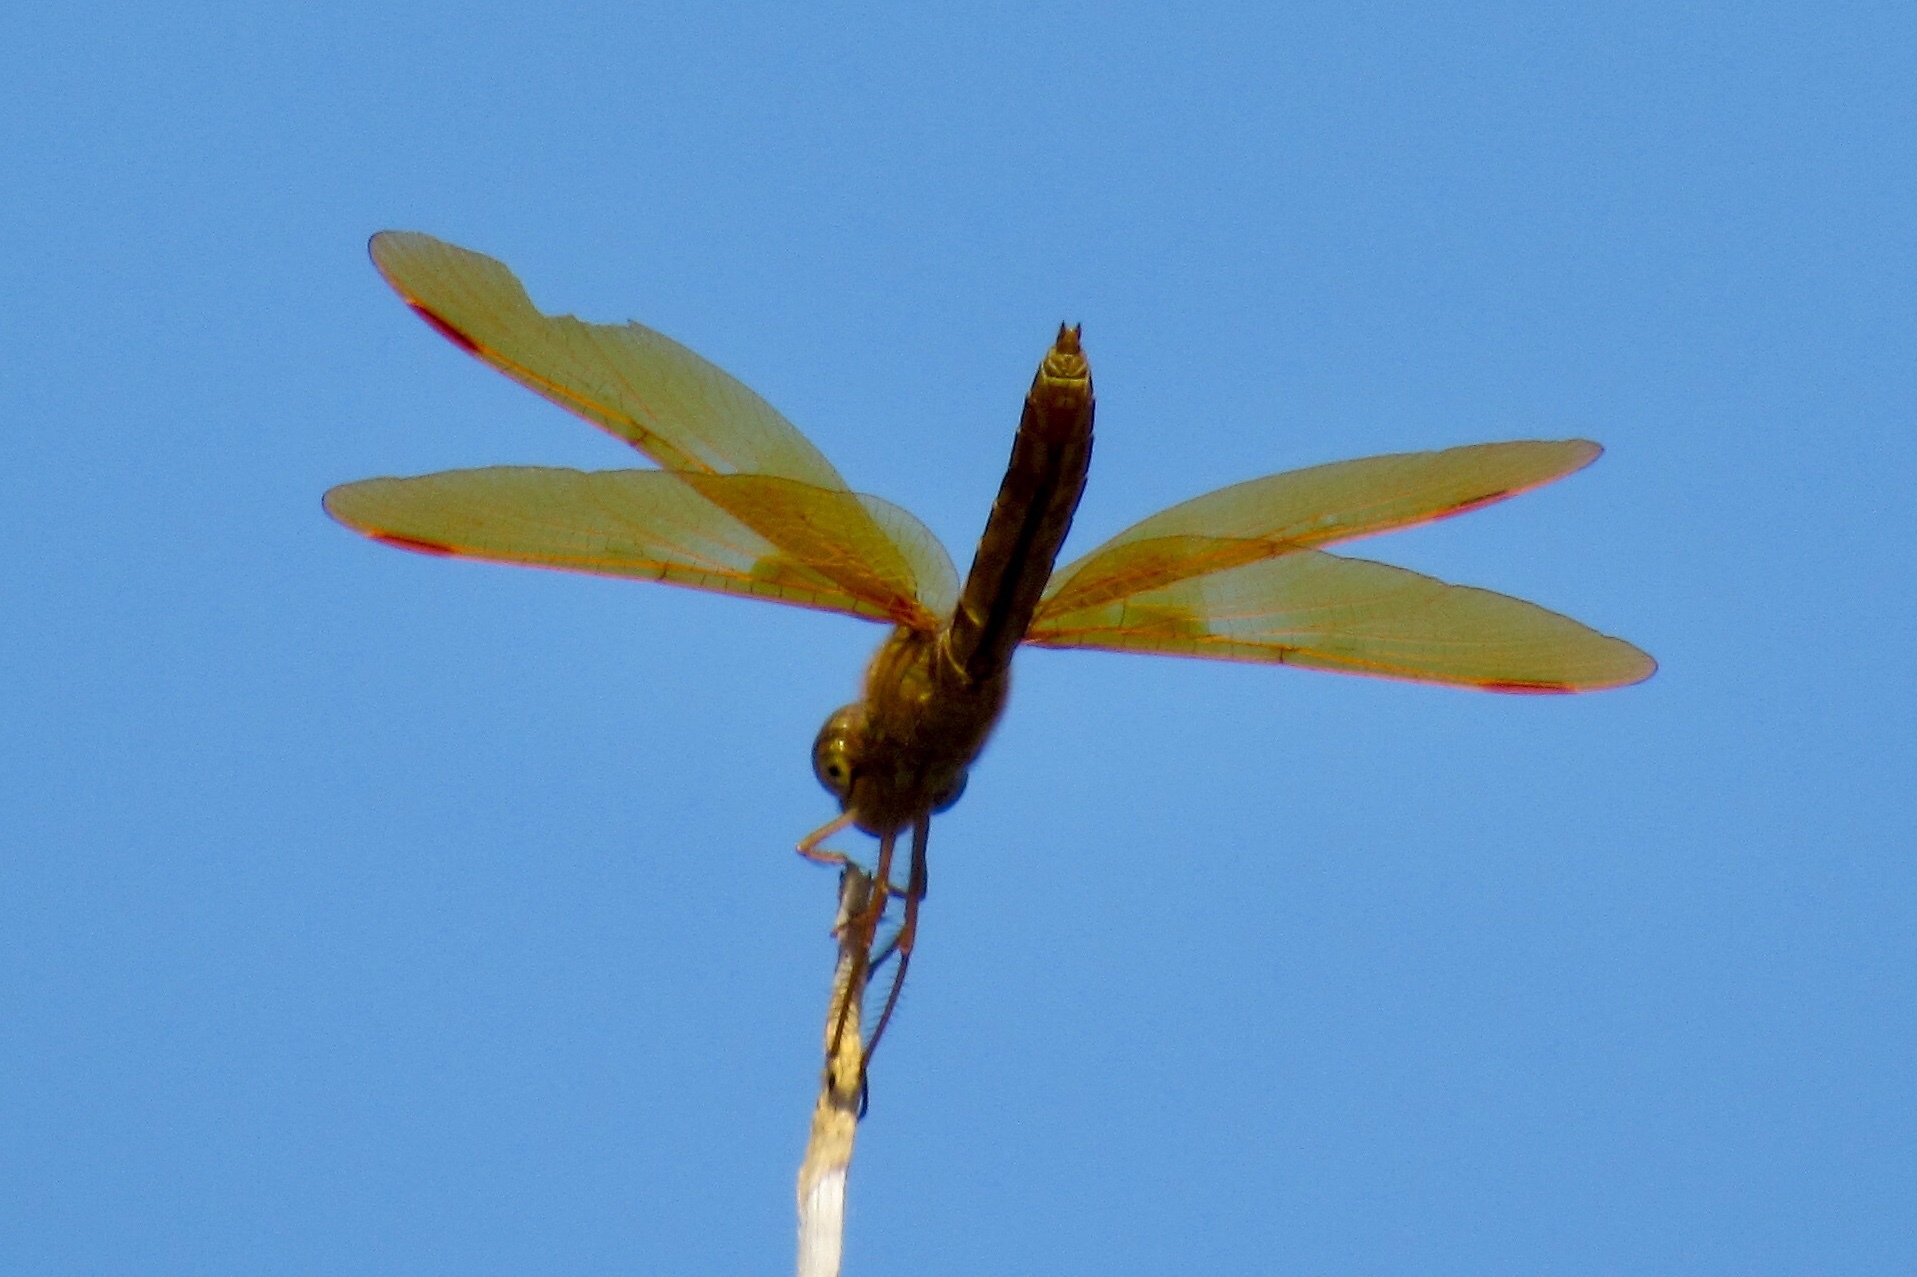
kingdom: Animalia
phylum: Arthropoda
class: Insecta
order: Odonata
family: Libellulidae
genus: Perithemis
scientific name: Perithemis intensa
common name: Mexican amberwing
